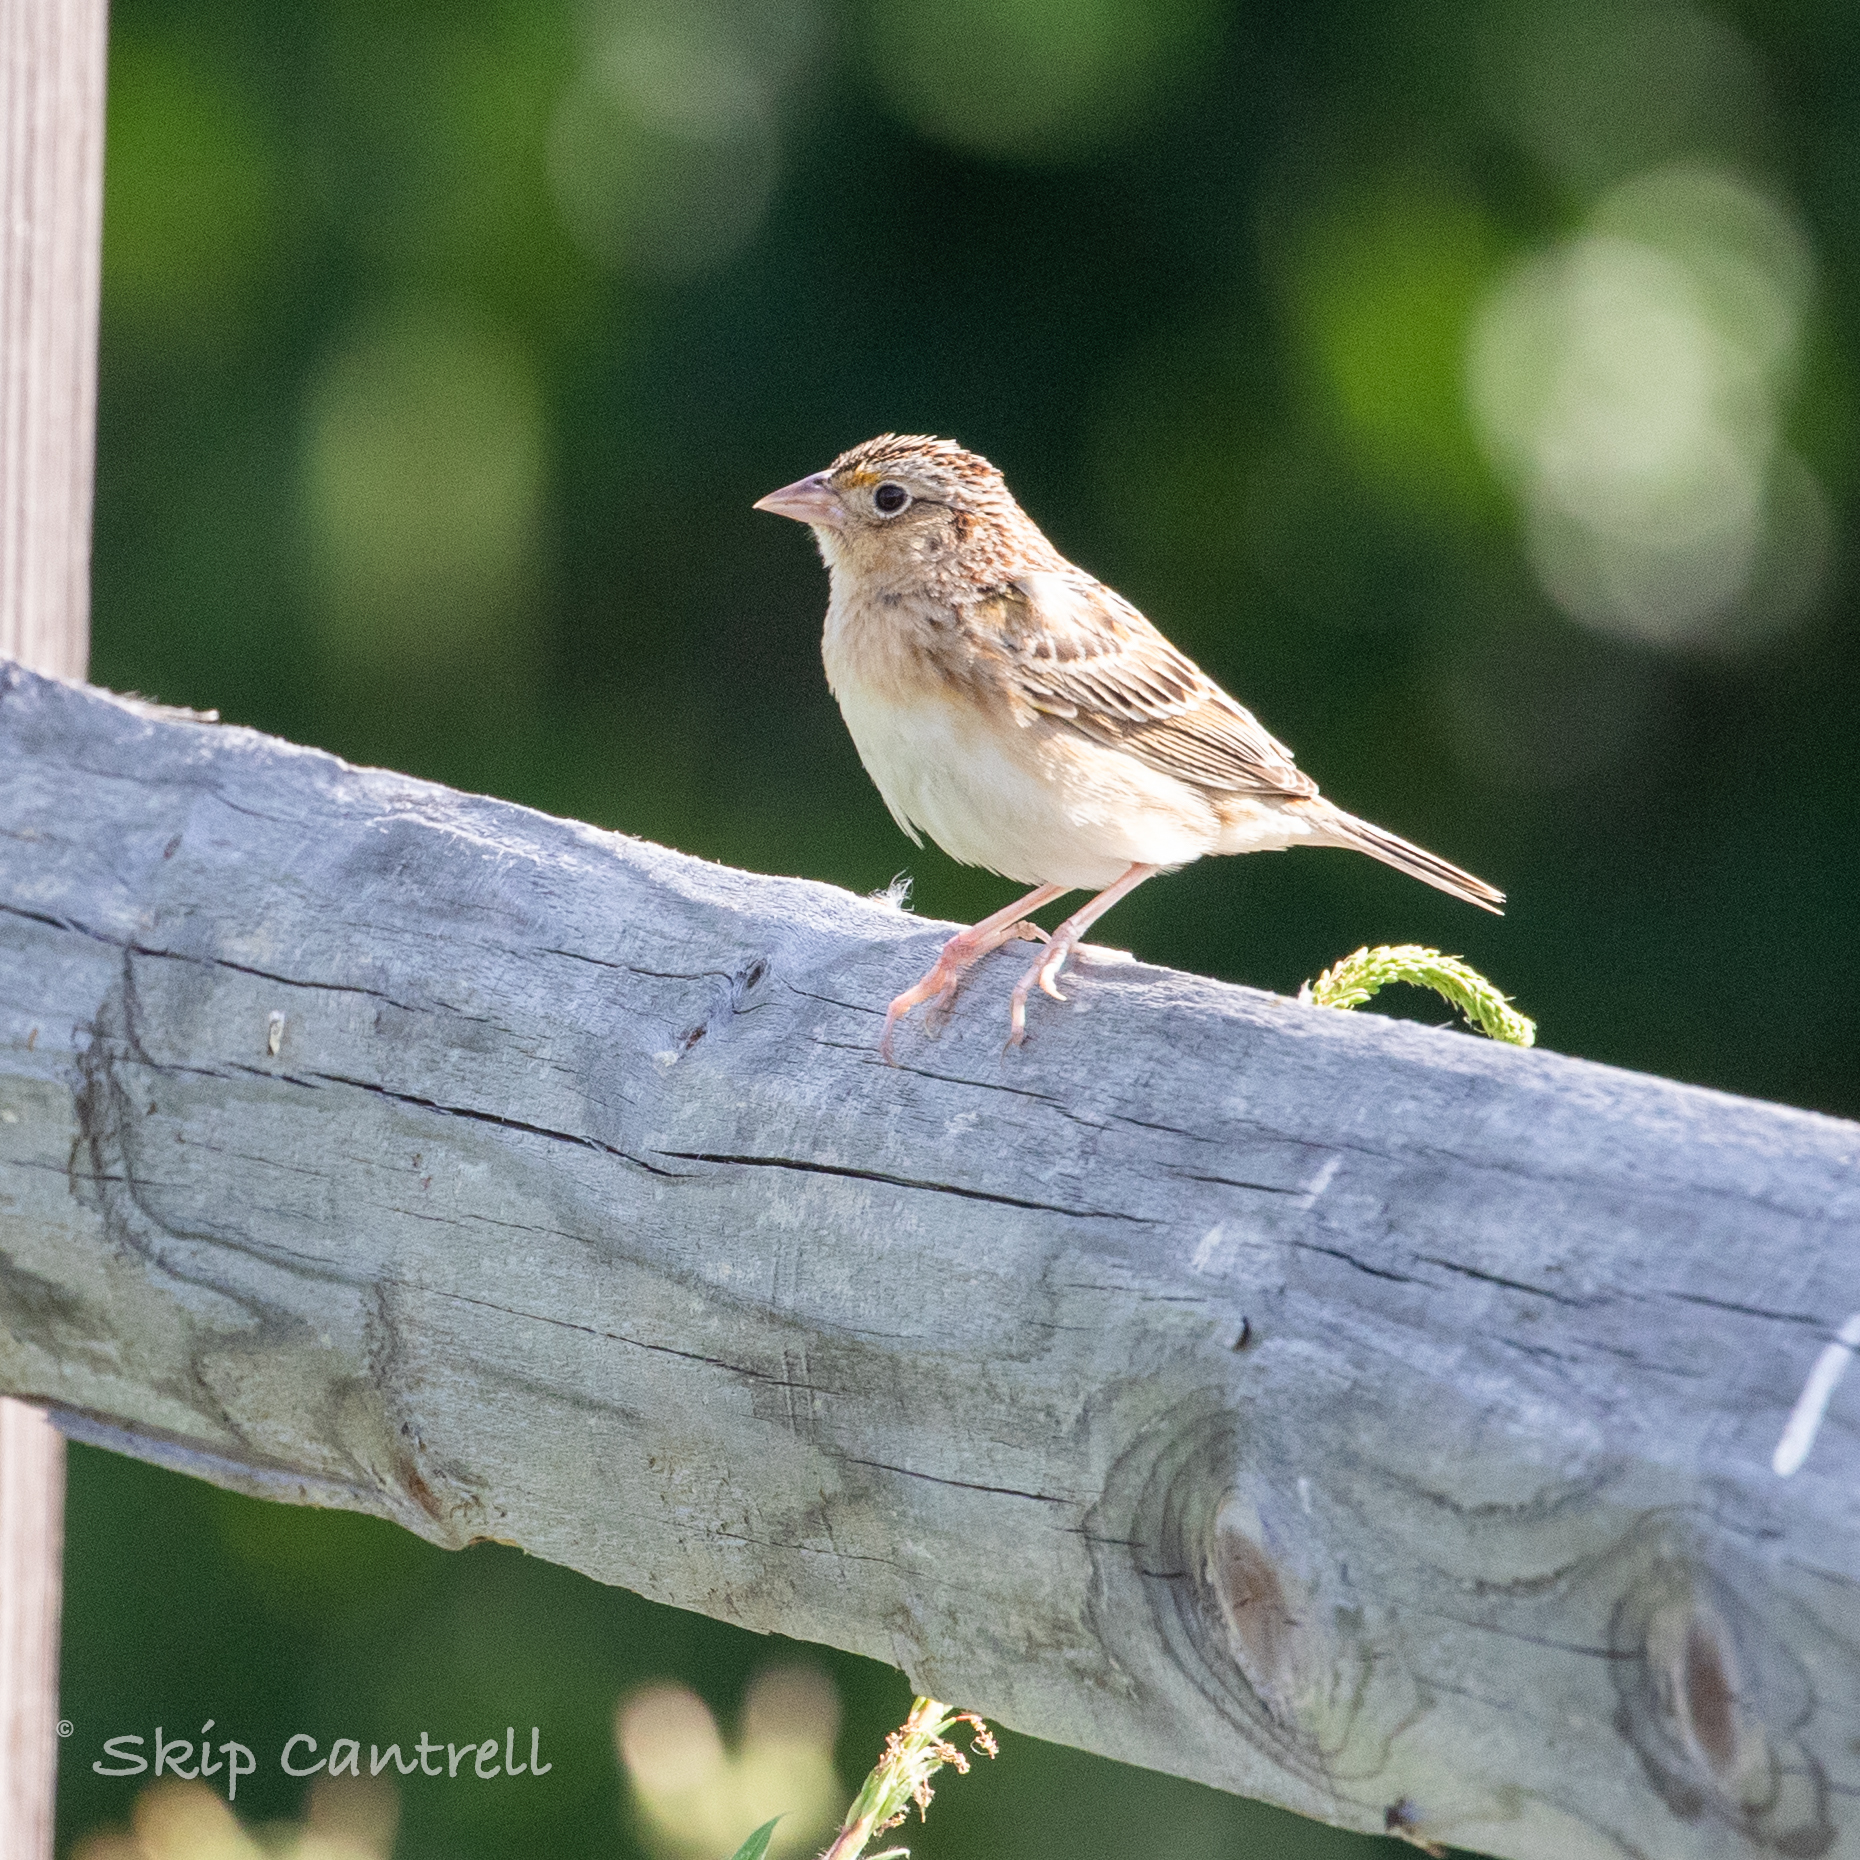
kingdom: Animalia
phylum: Chordata
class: Aves
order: Passeriformes
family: Passerellidae
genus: Ammodramus
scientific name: Ammodramus savannarum
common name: Grasshopper sparrow
